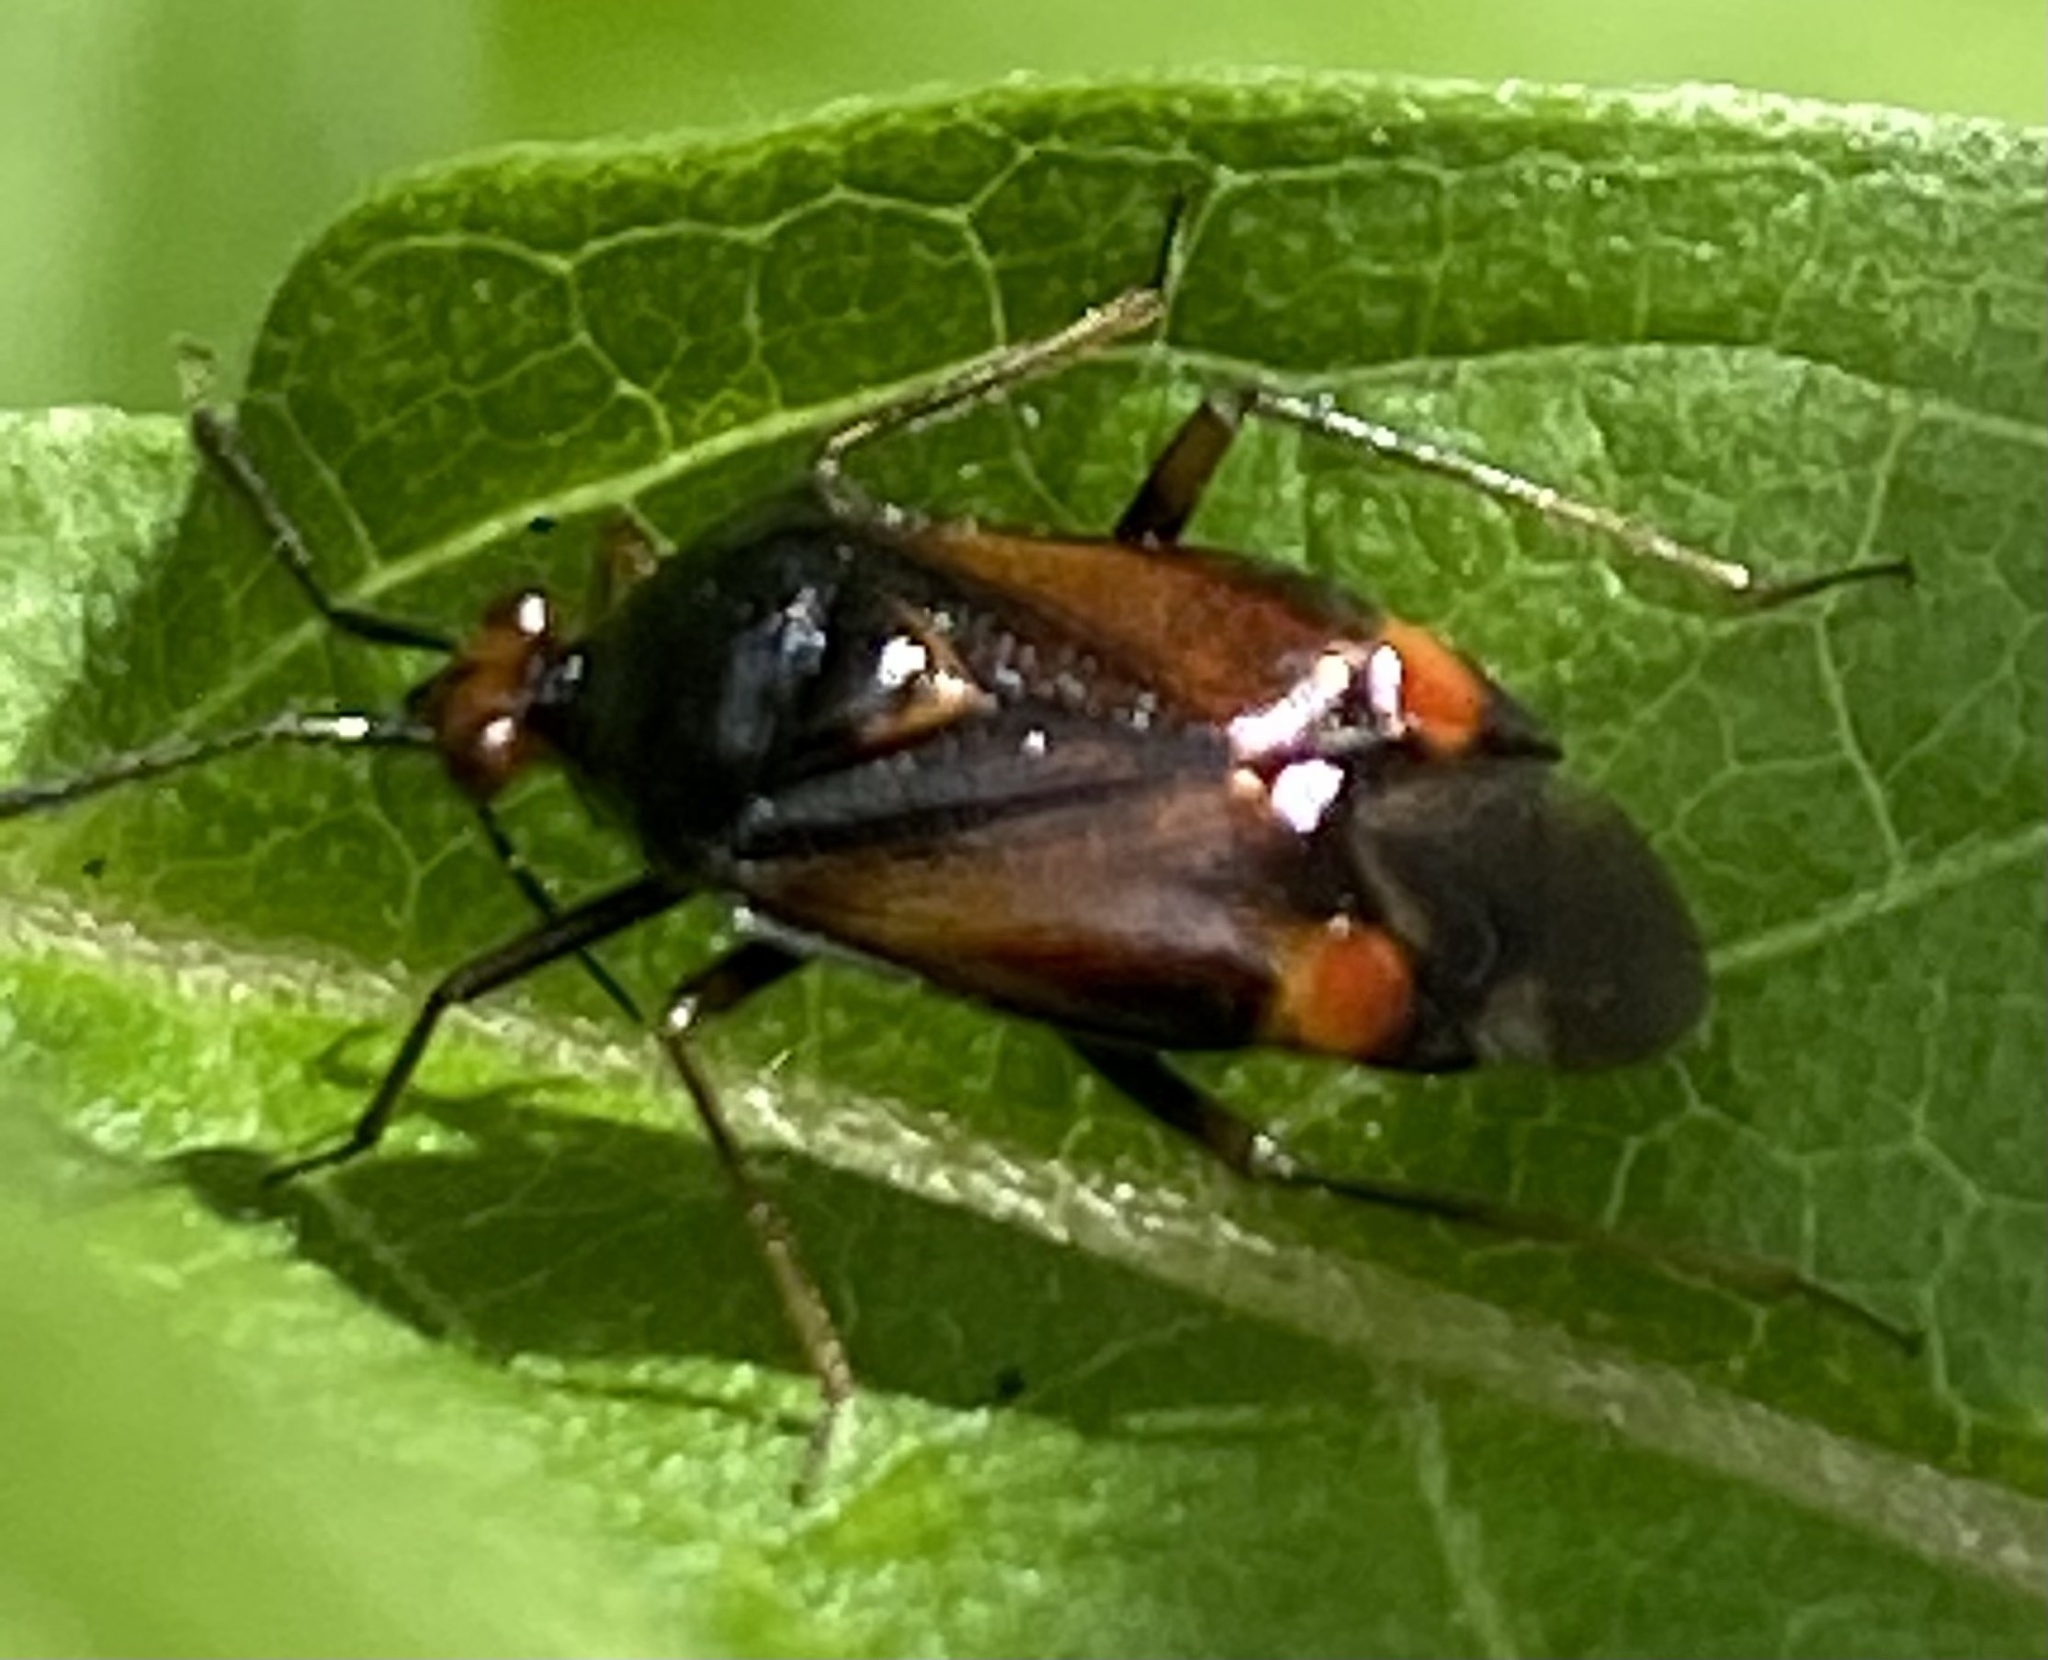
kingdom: Animalia
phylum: Arthropoda
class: Insecta
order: Hemiptera
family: Miridae
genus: Deraeocoris
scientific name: Deraeocoris ruber
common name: Plant bug
